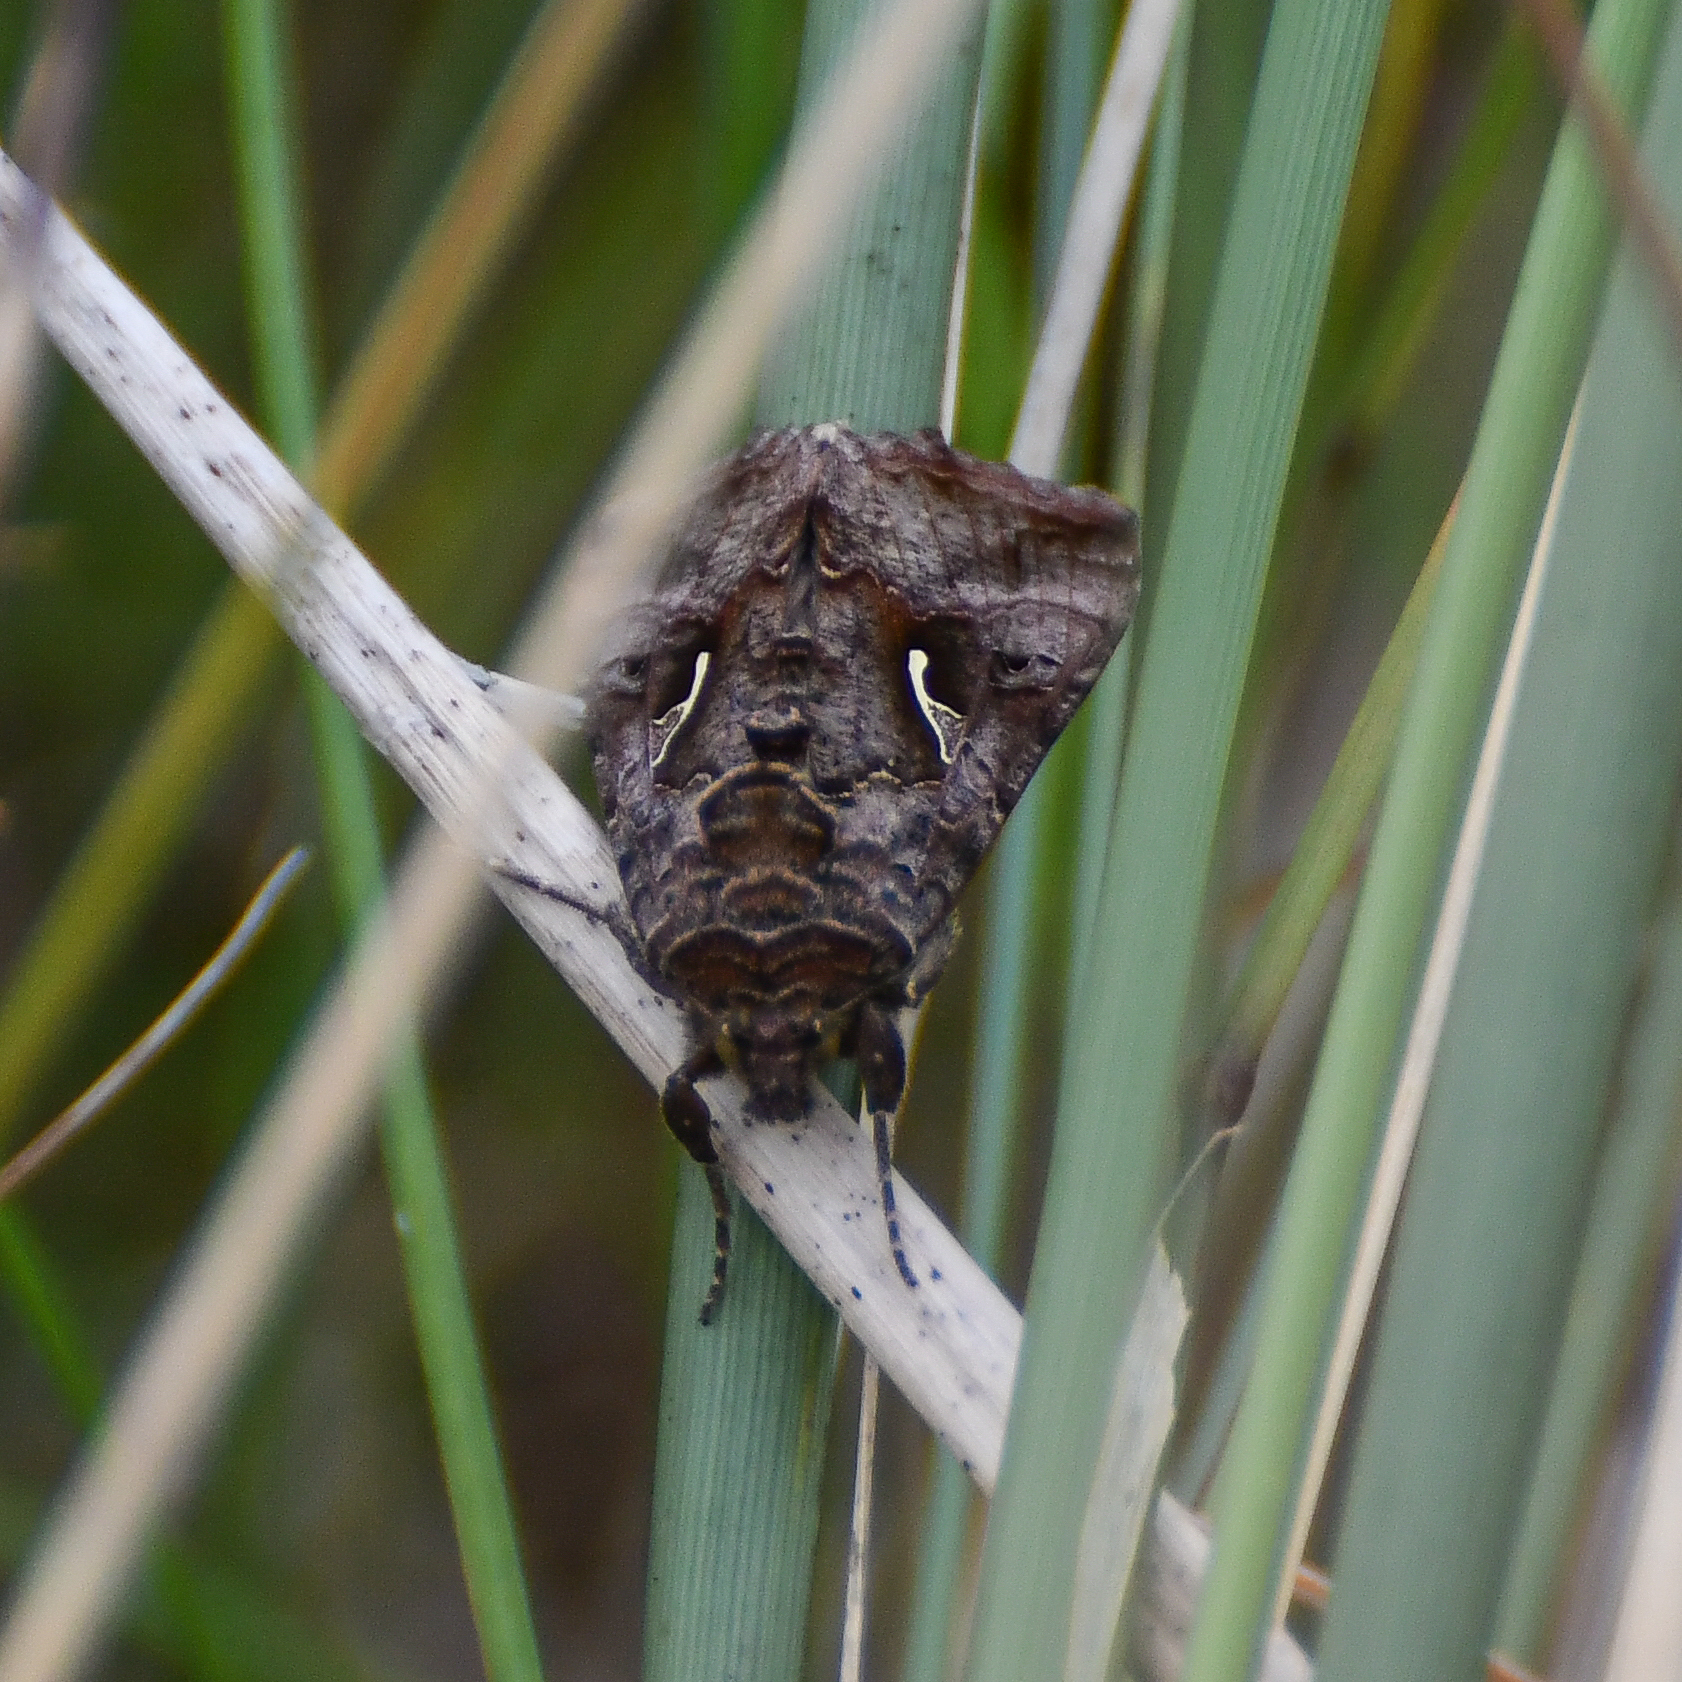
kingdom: Animalia
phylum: Arthropoda
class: Insecta
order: Lepidoptera
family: Noctuidae
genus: Autographa
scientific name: Autographa gamma
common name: Silver y
